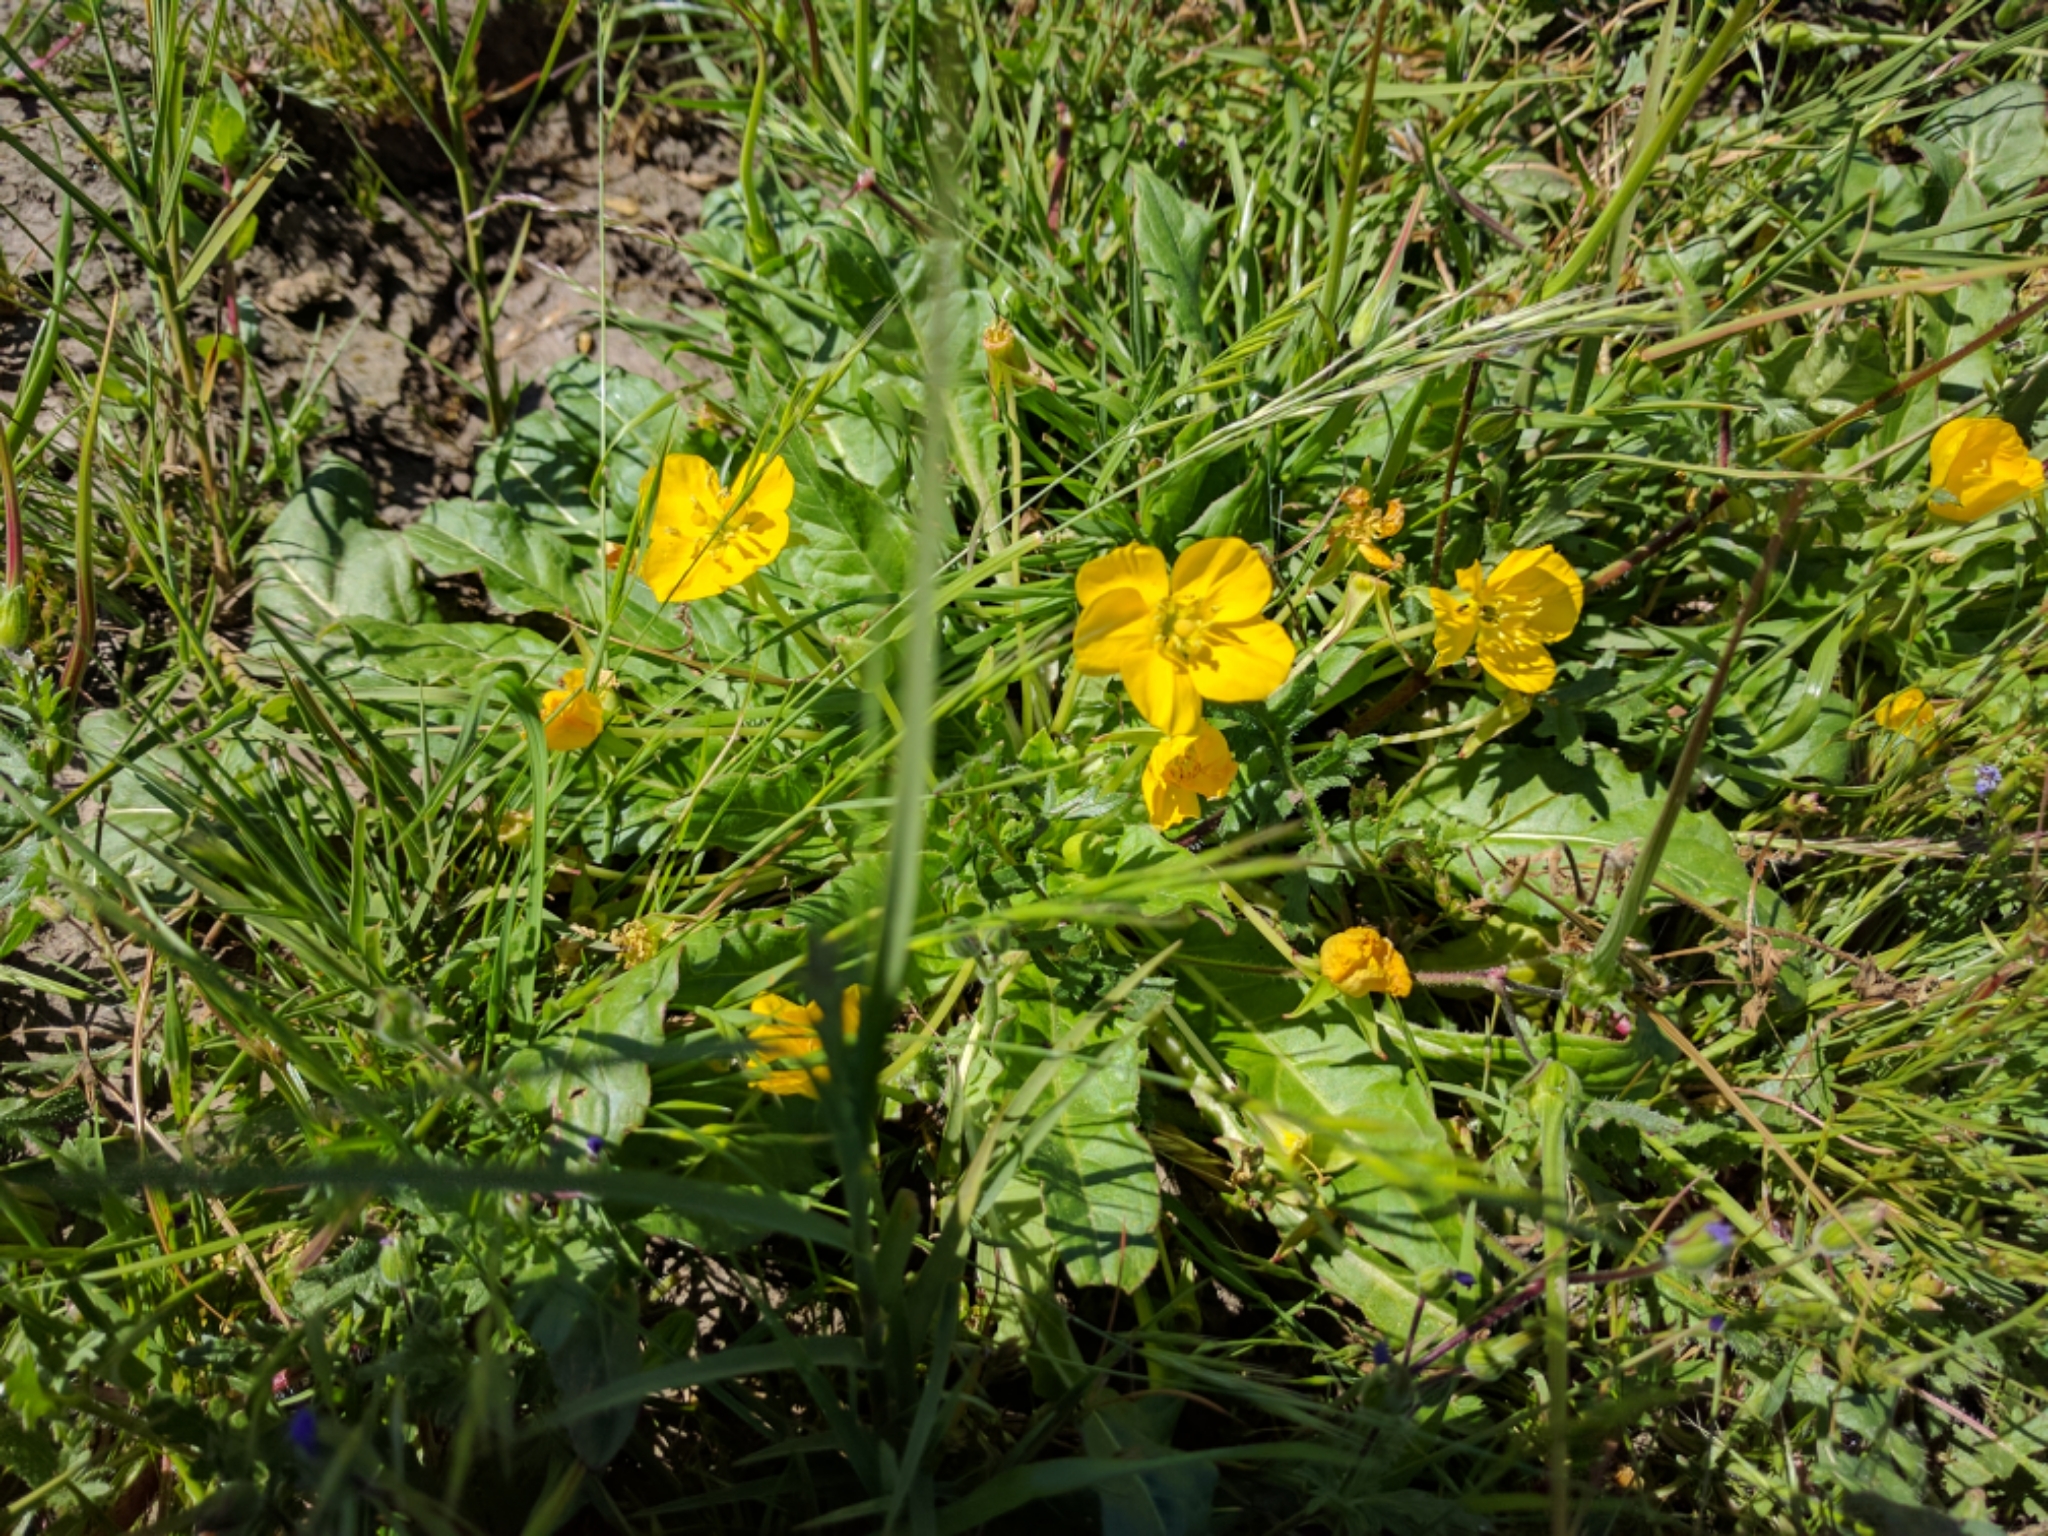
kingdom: Plantae
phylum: Tracheophyta
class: Magnoliopsida
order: Myrtales
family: Onagraceae
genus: Taraxia
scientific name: Taraxia ovata
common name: Goldeneggs
